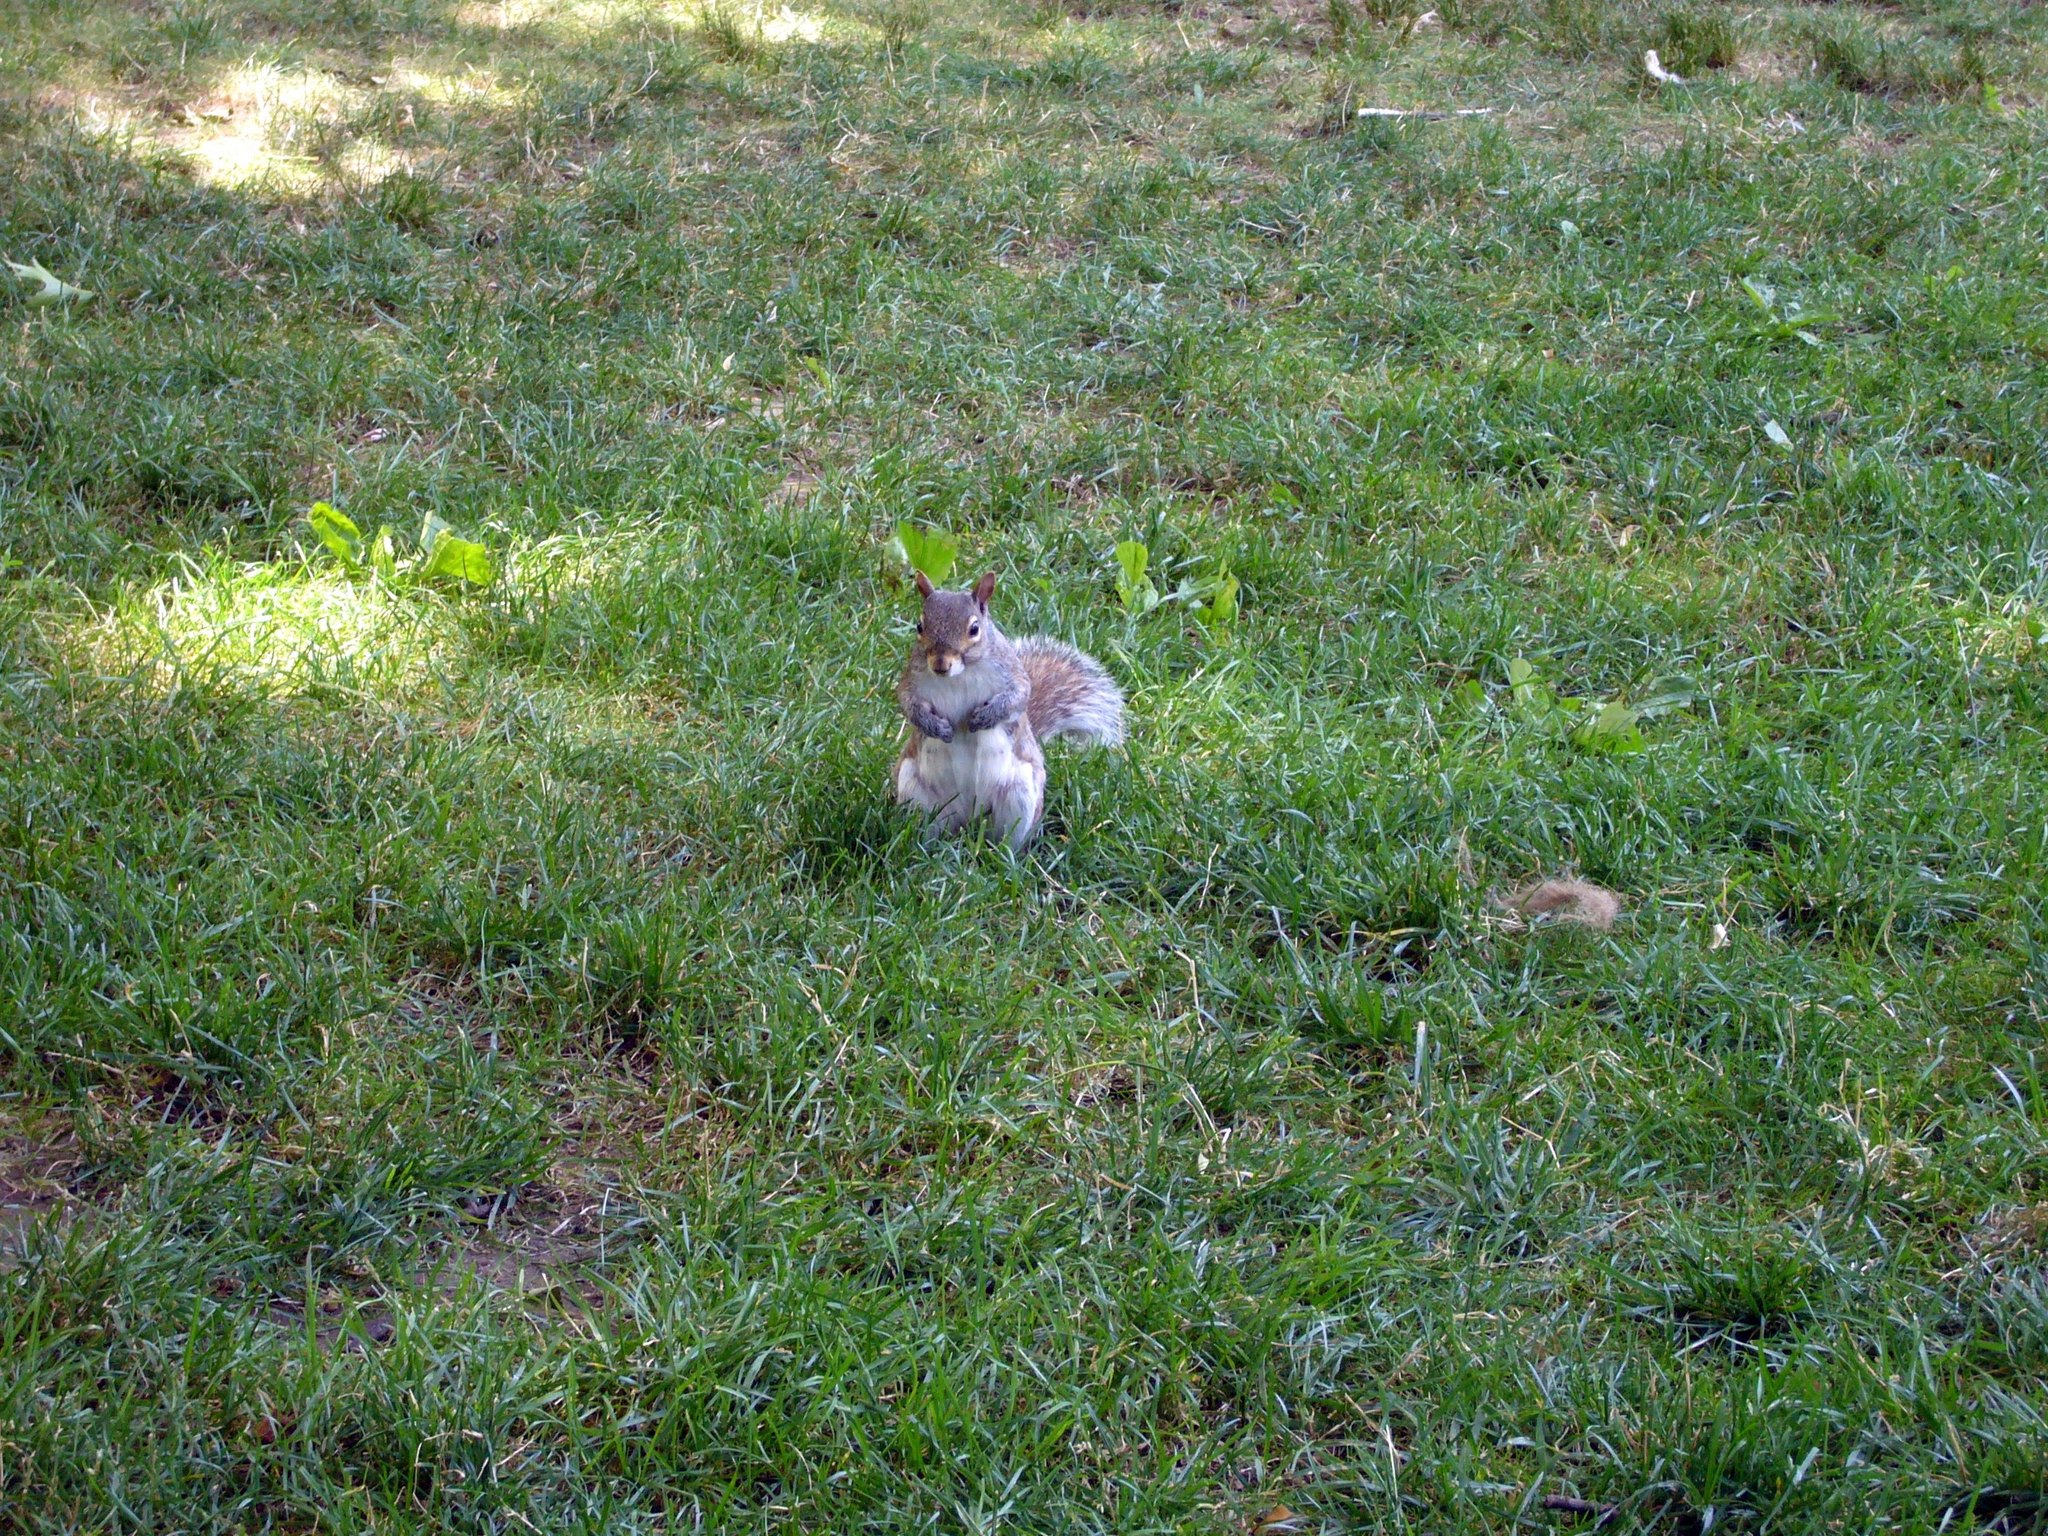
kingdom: Animalia
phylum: Chordata
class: Mammalia
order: Rodentia
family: Sciuridae
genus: Sciurus
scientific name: Sciurus carolinensis
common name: Eastern gray squirrel
